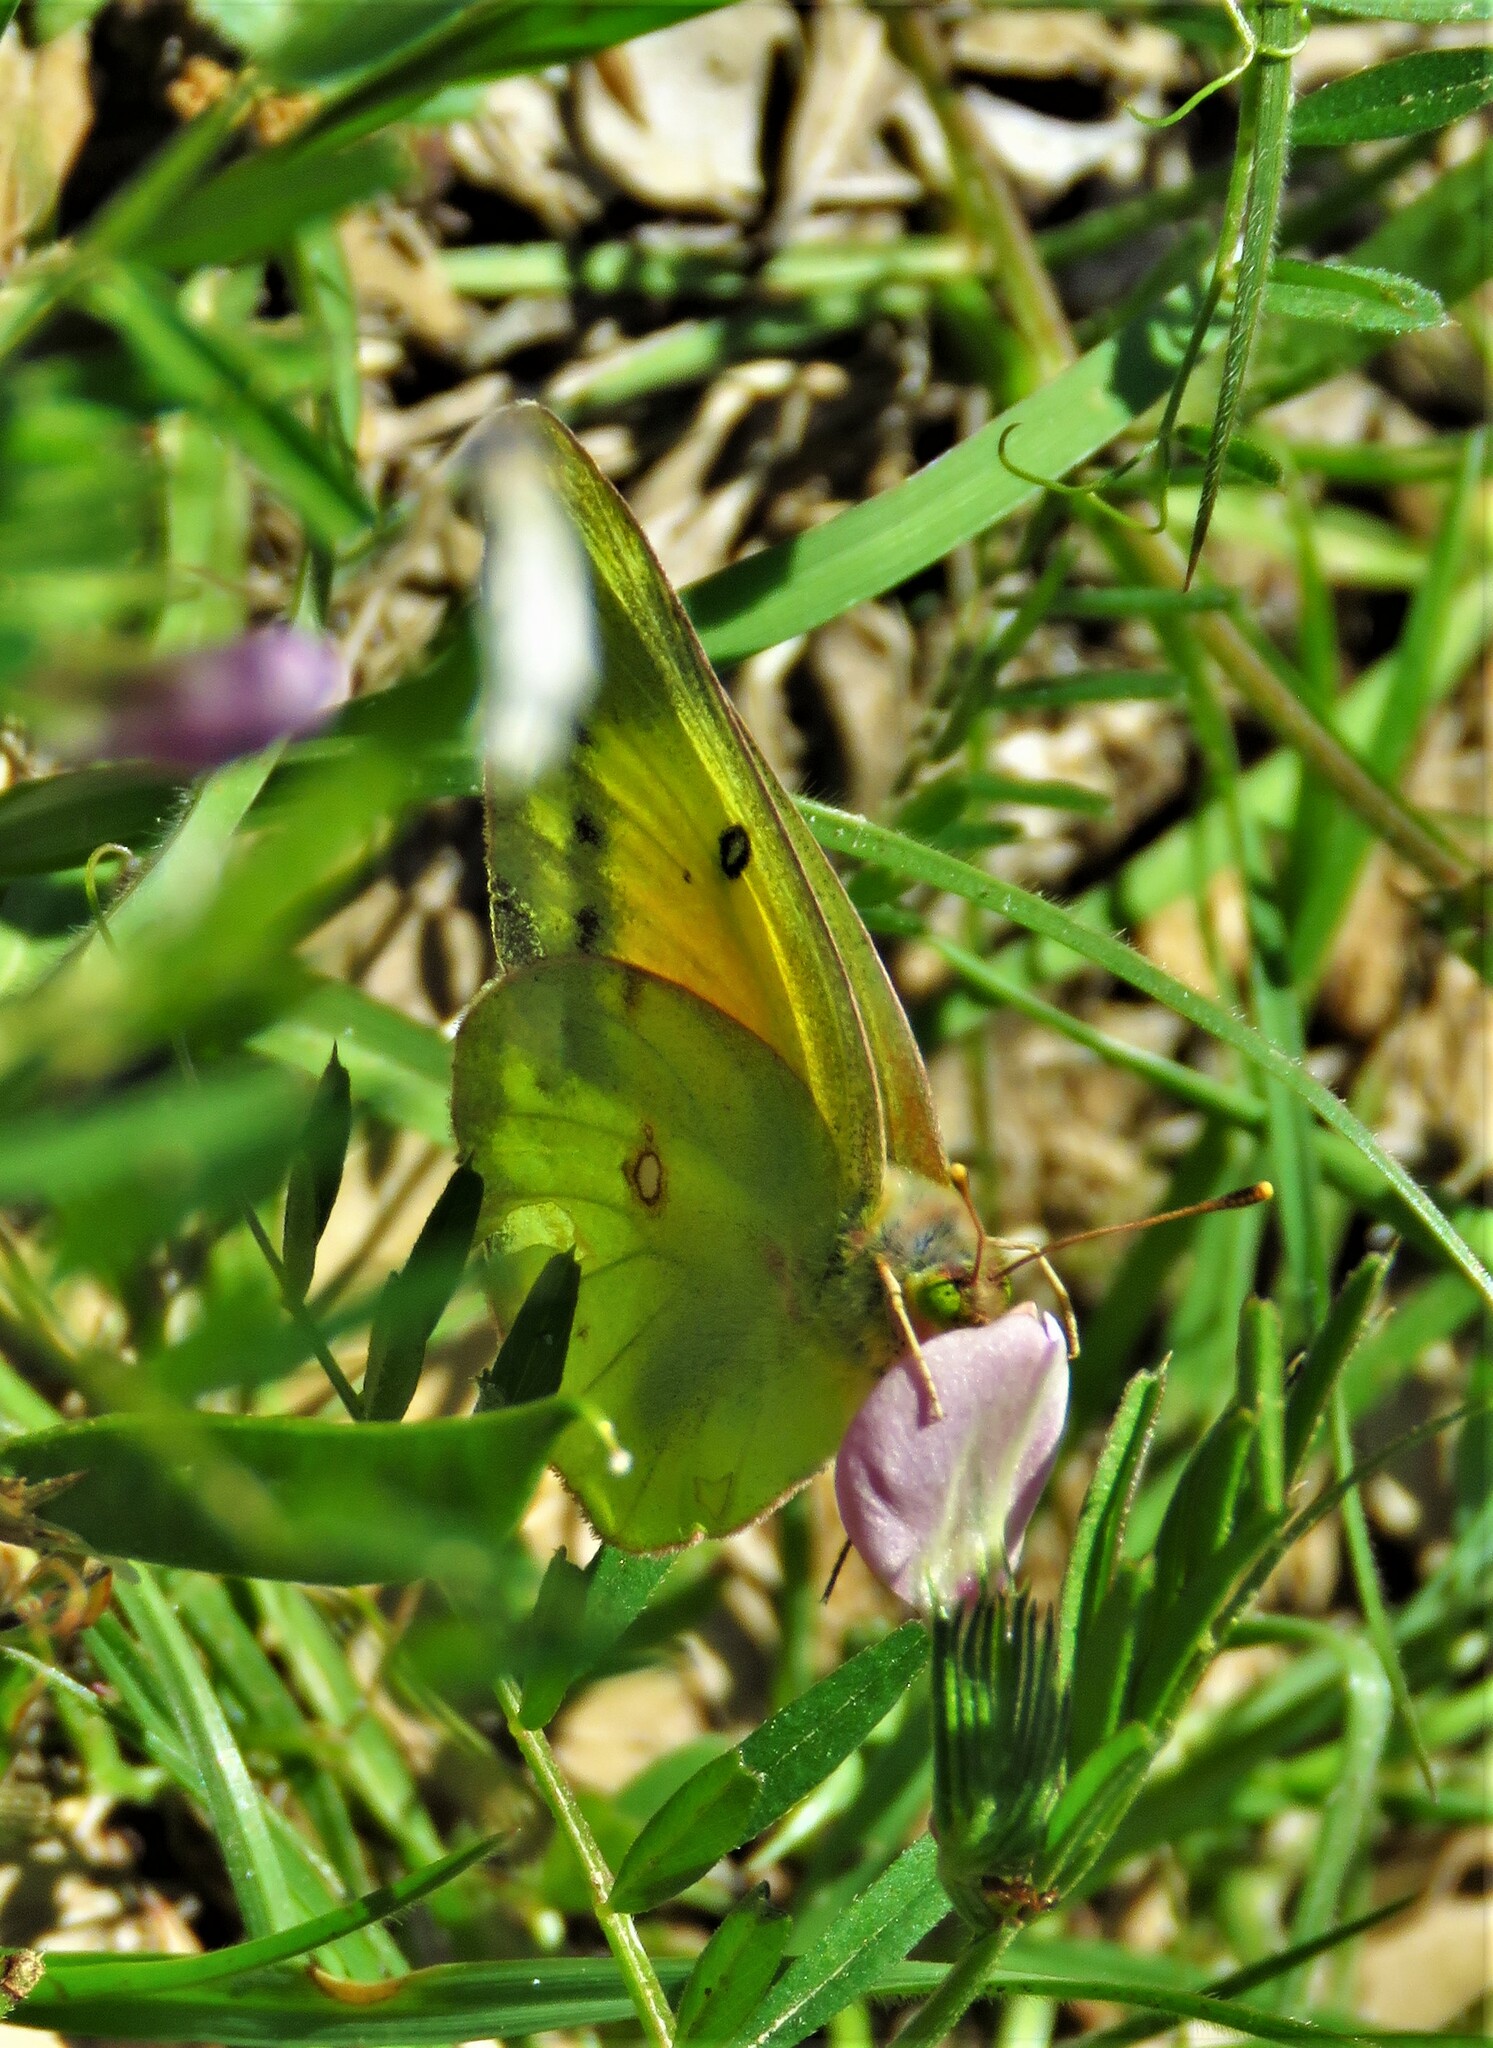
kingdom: Animalia
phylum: Arthropoda
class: Insecta
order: Lepidoptera
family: Pieridae
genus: Colias
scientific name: Colias eurytheme
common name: Alfalfa butterfly
